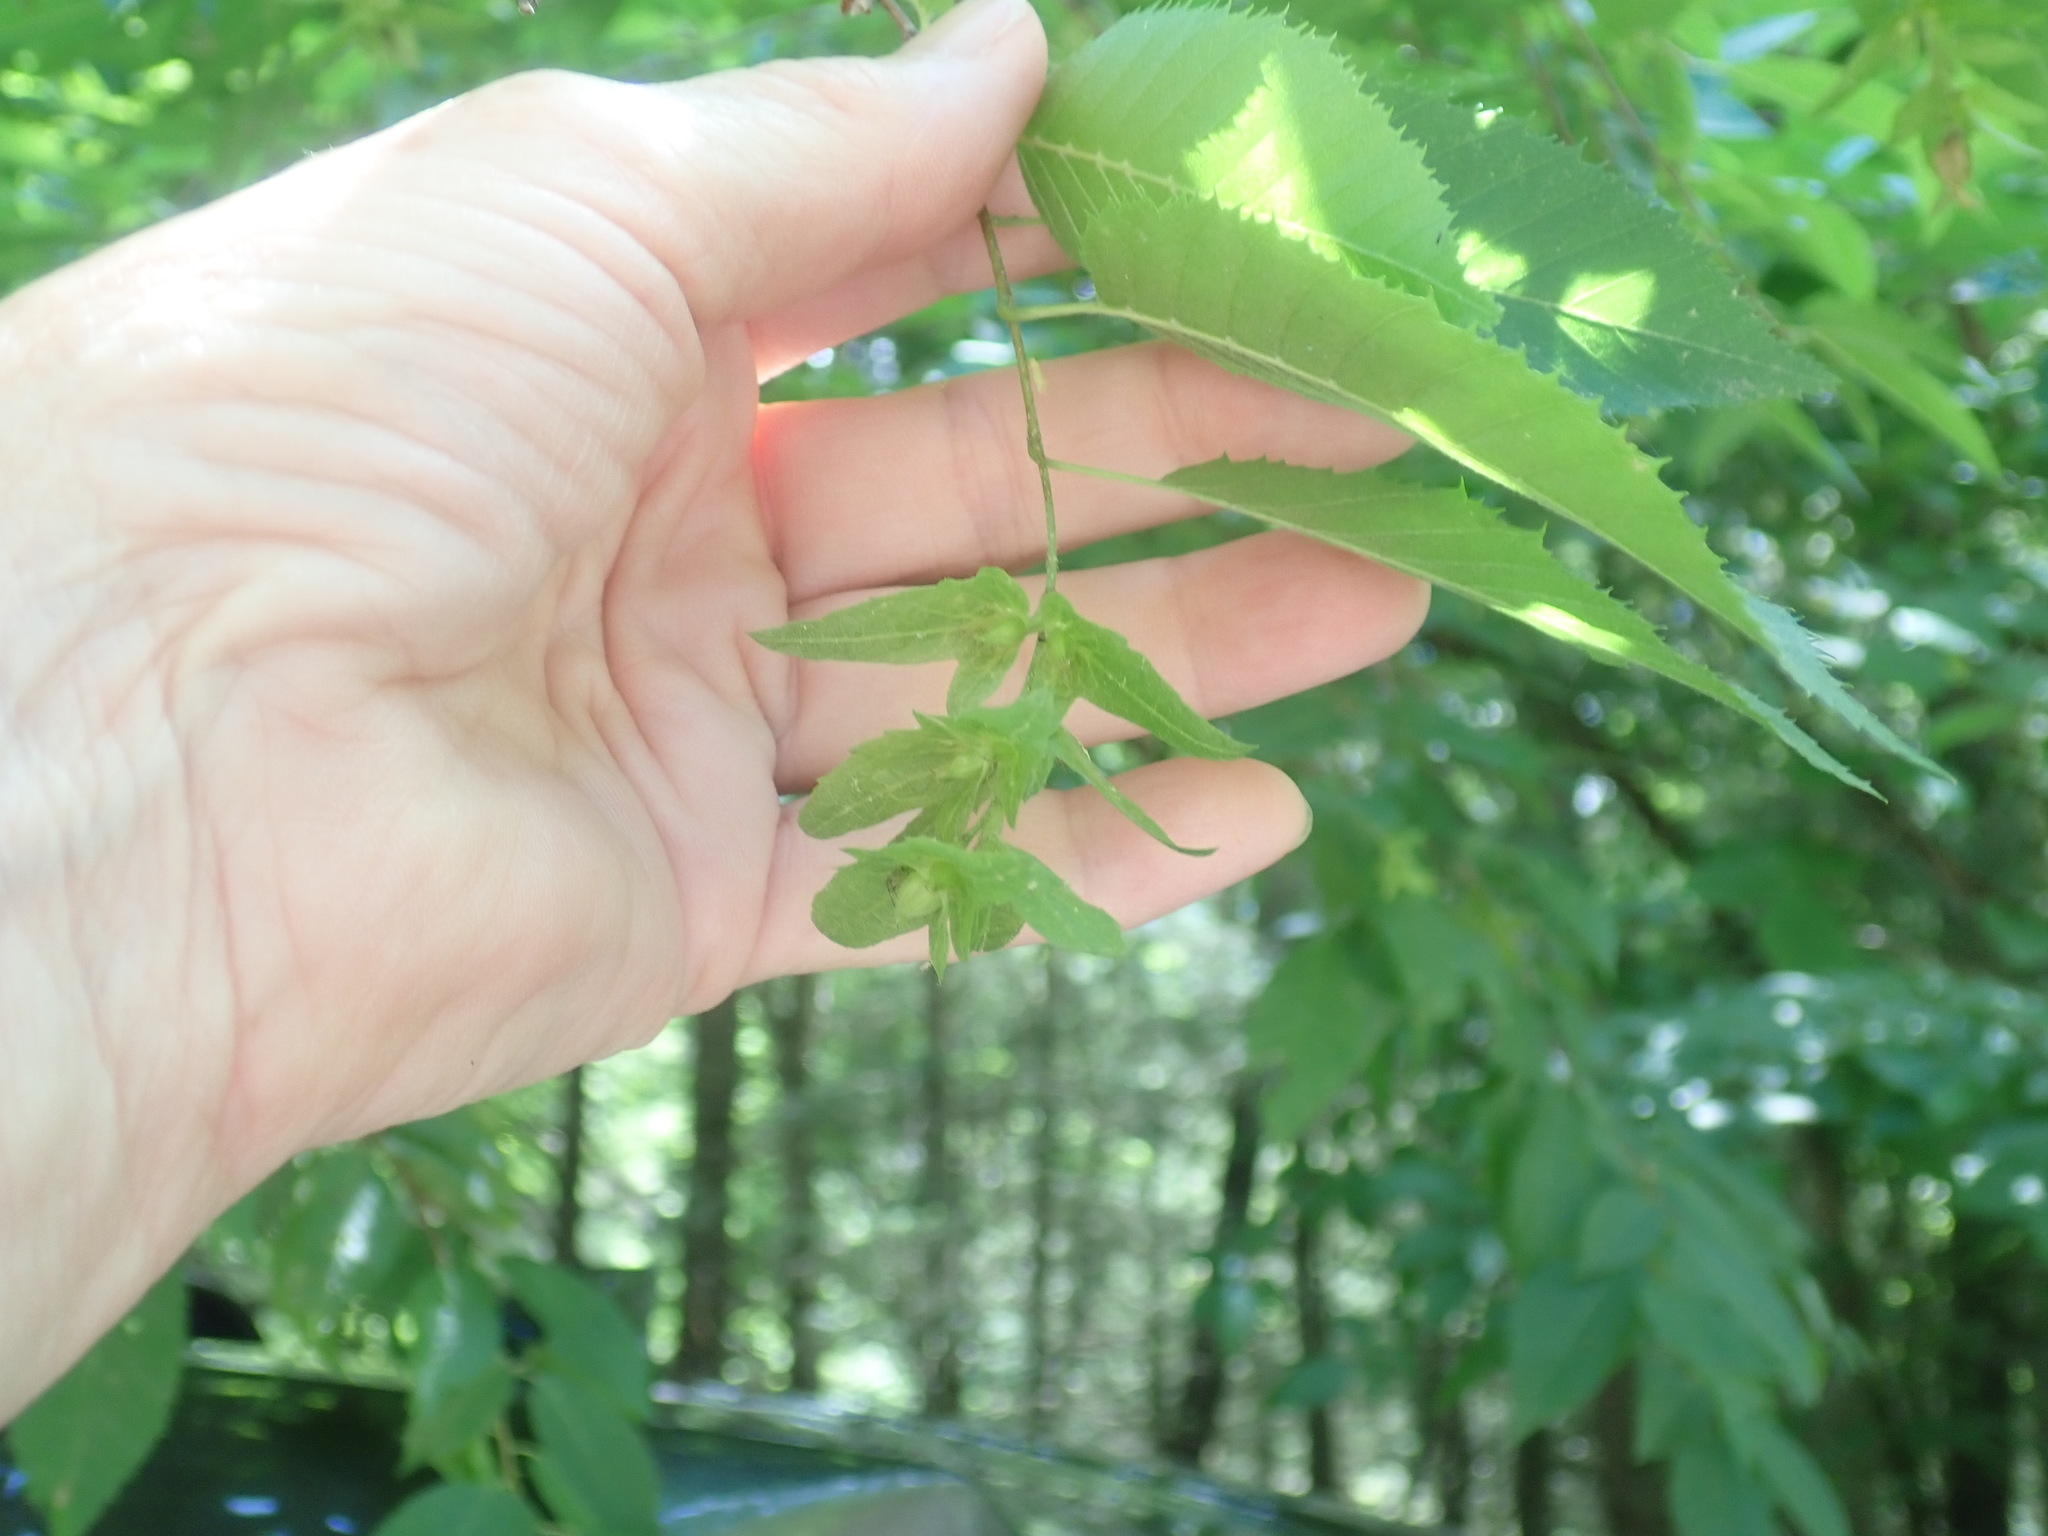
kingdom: Plantae
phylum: Tracheophyta
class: Magnoliopsida
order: Fagales
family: Betulaceae
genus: Carpinus
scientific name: Carpinus caroliniana
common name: American hornbeam
